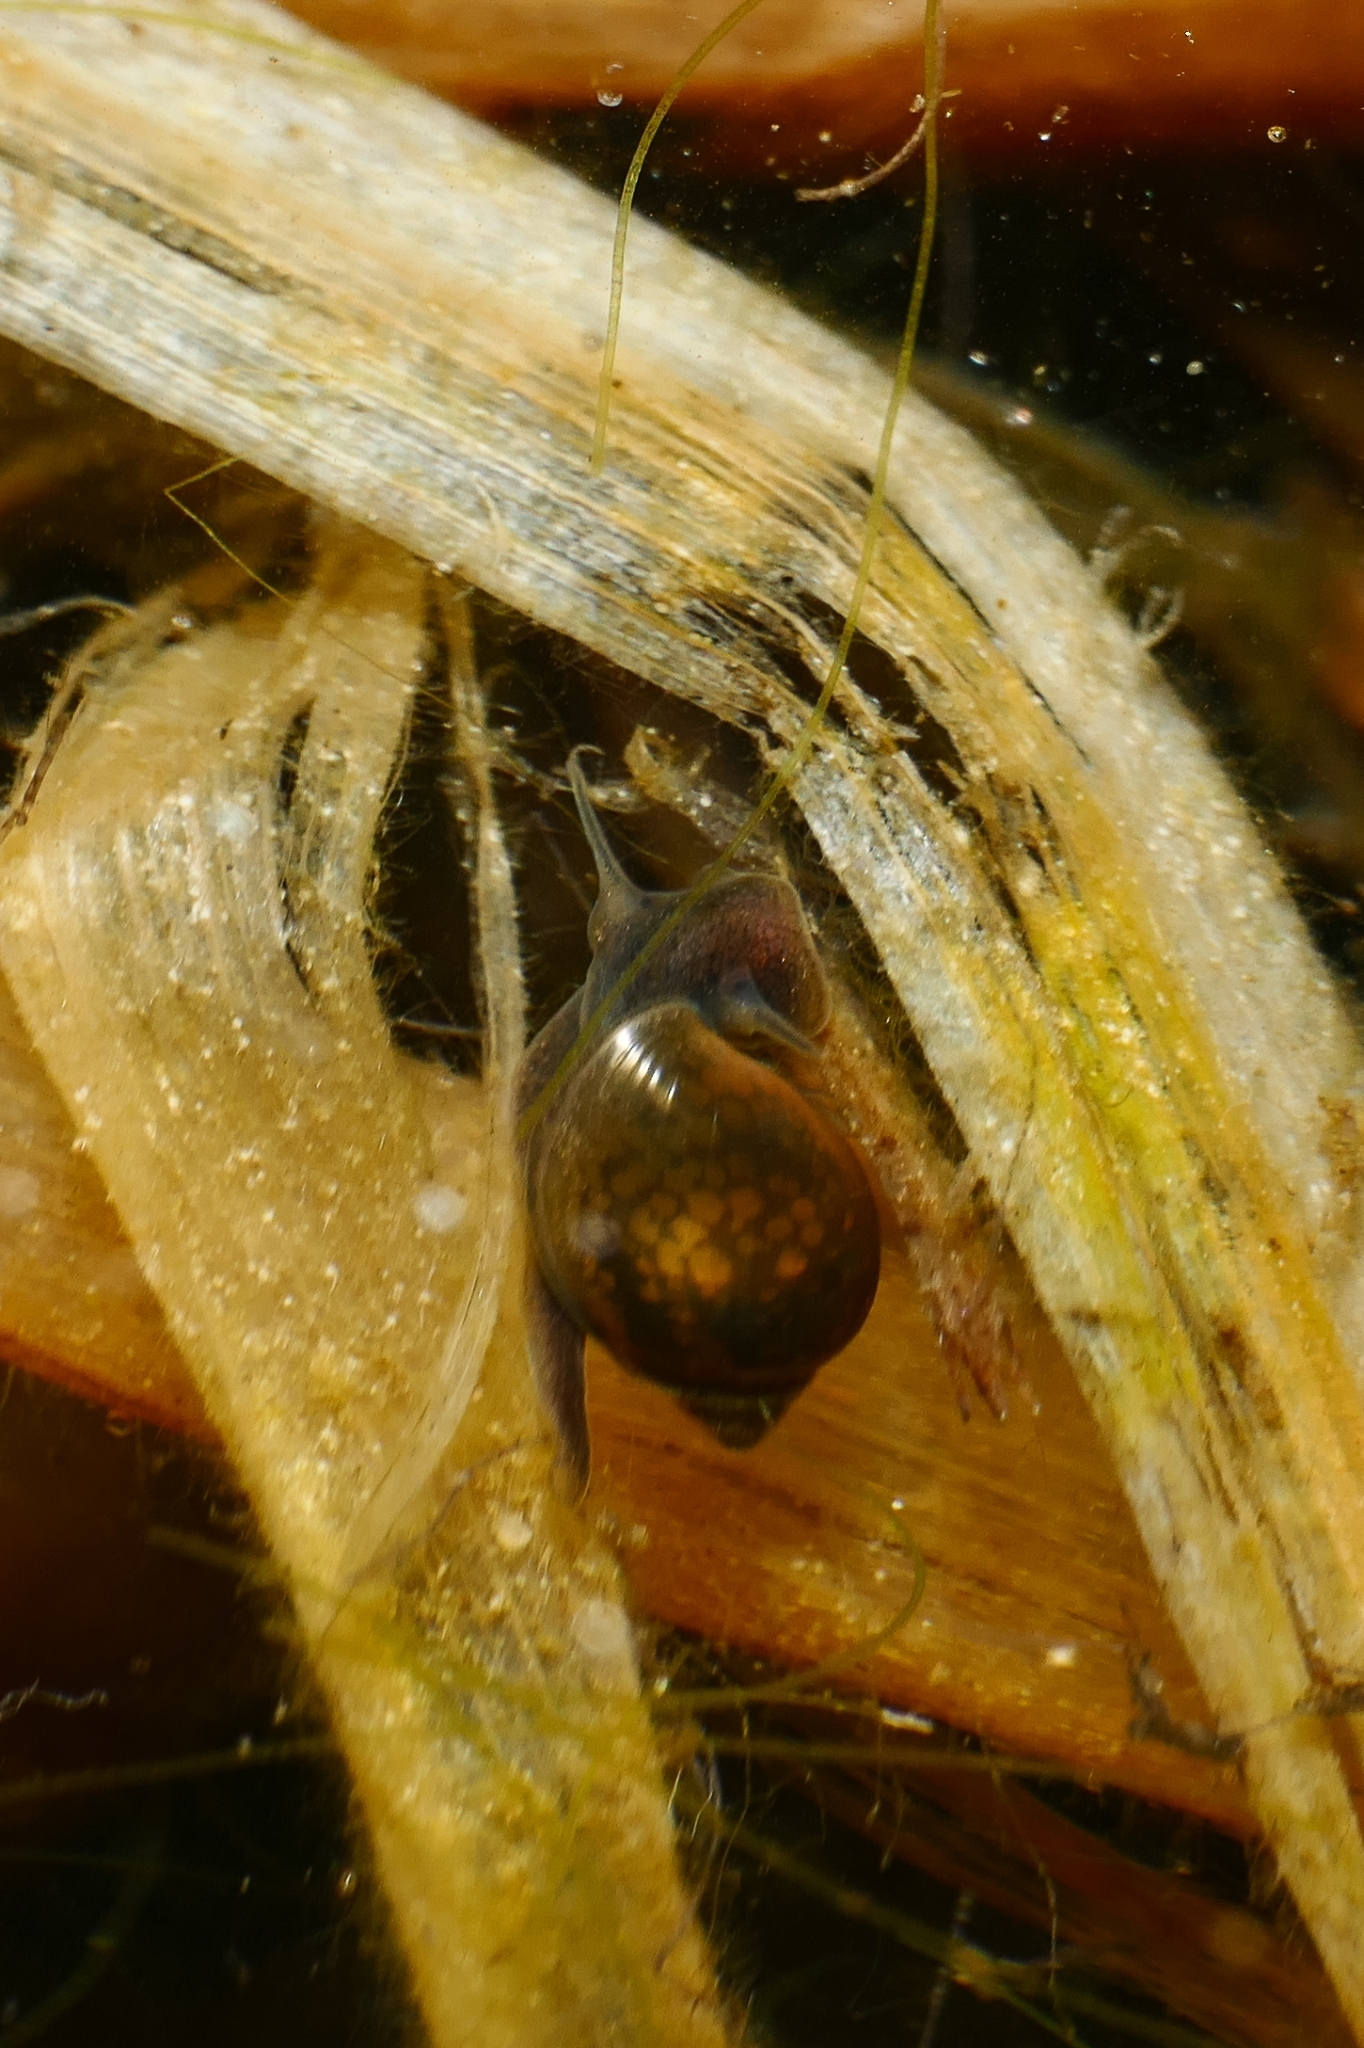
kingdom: Animalia
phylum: Mollusca
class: Gastropoda
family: Physidae
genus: Physella
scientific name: Physella acuta
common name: European physa
